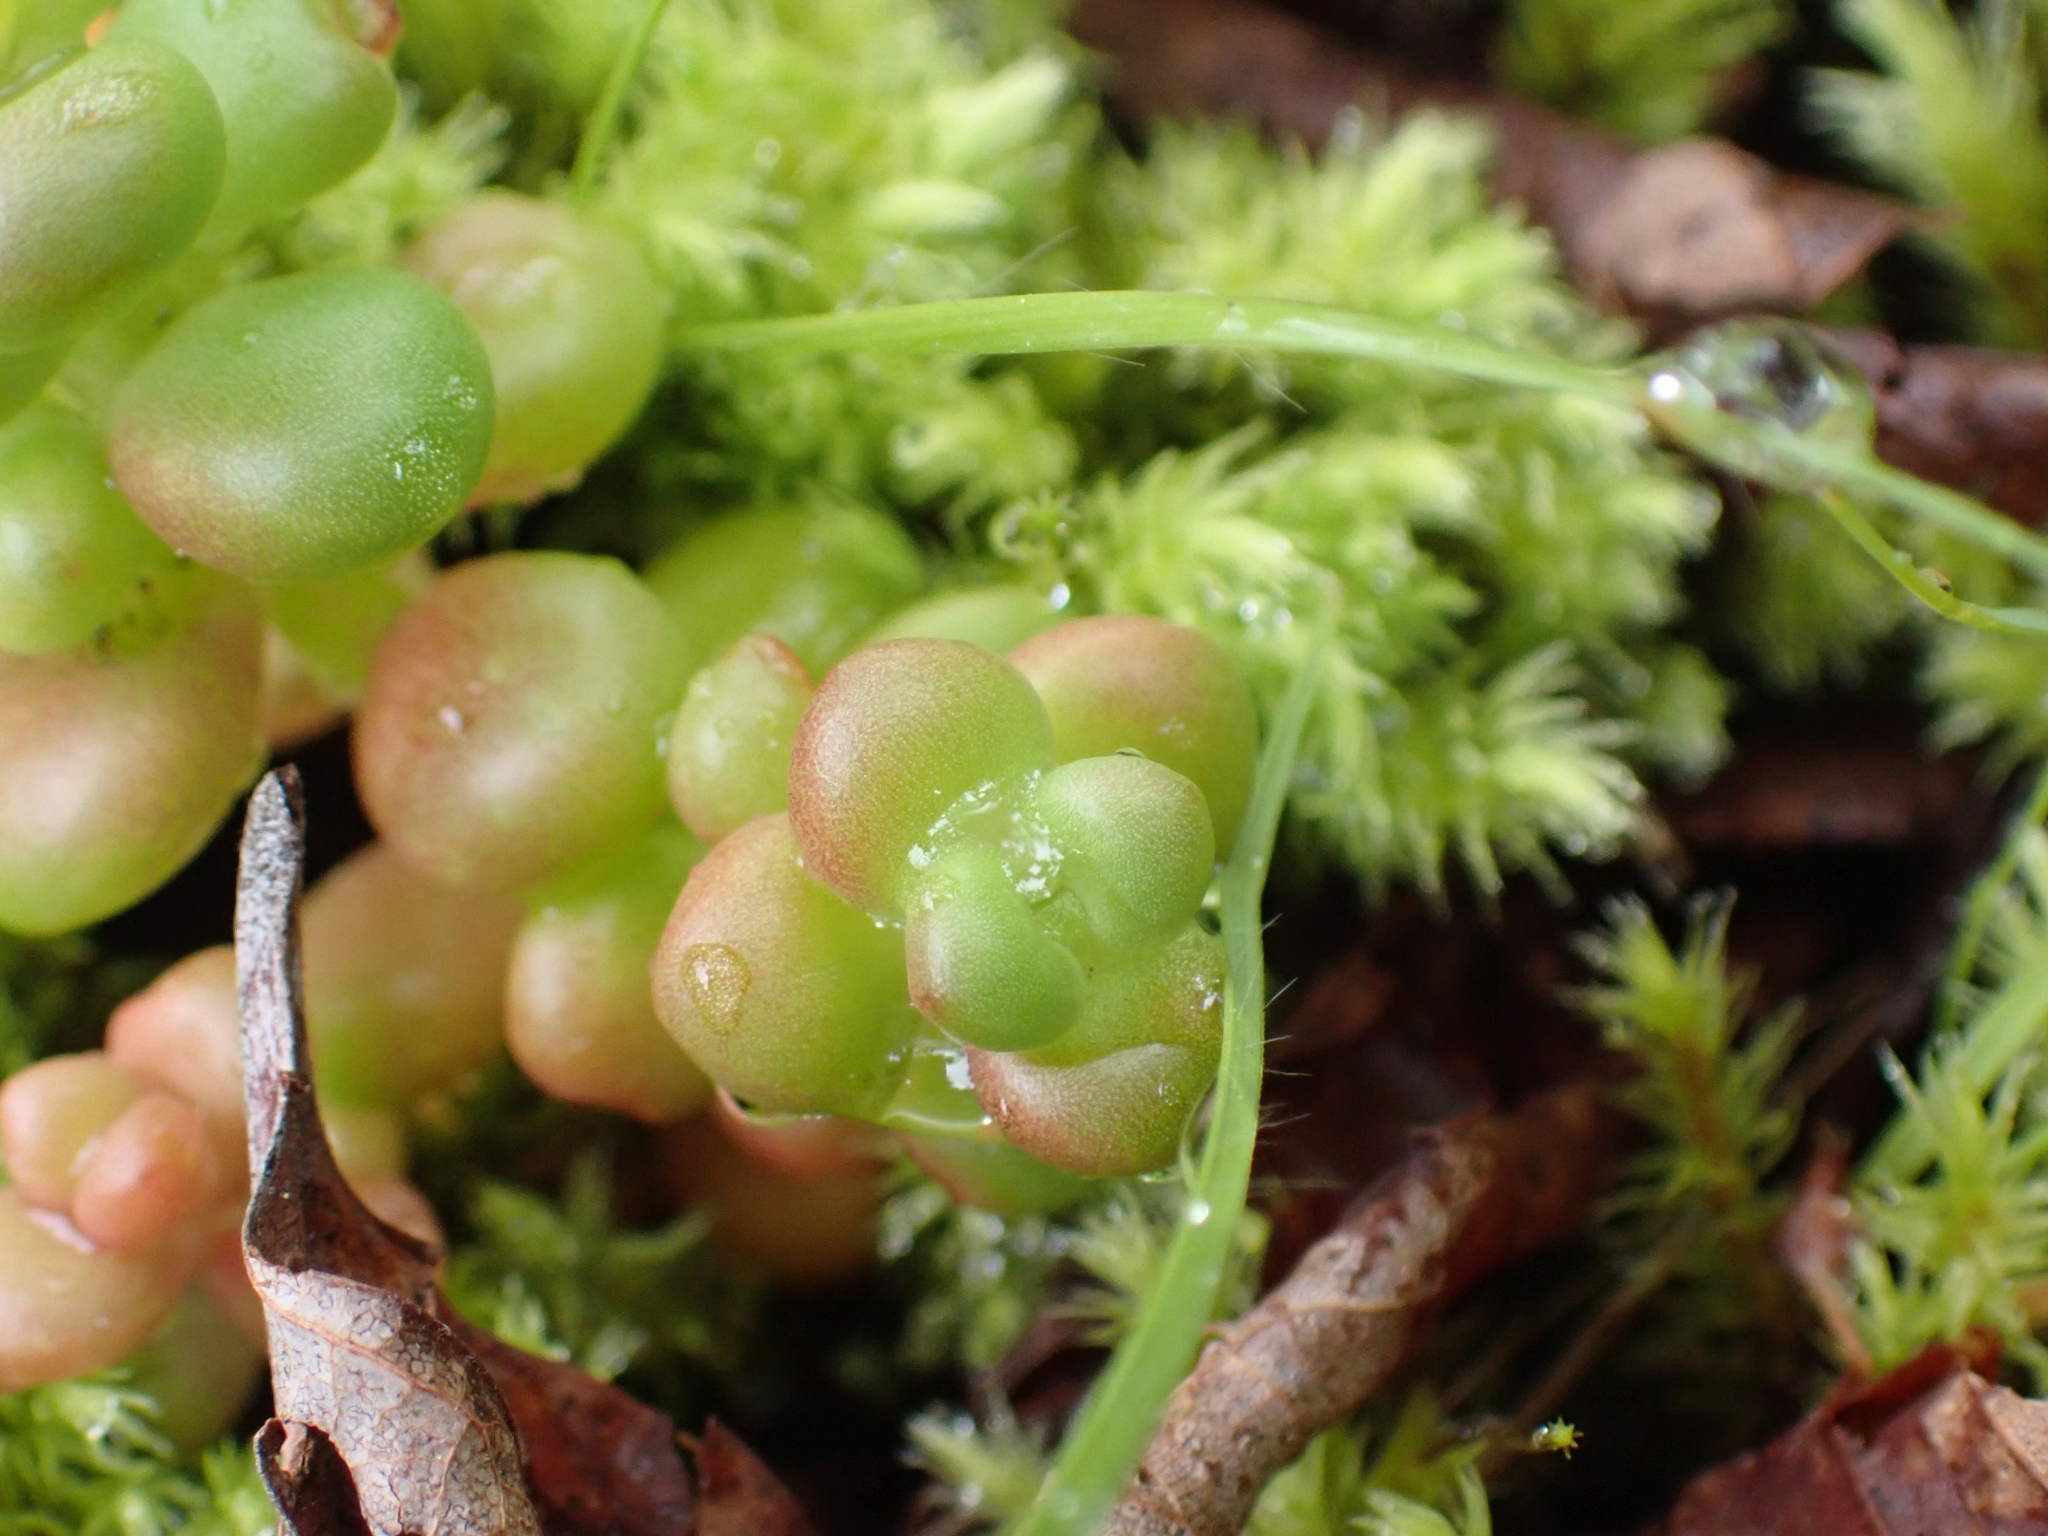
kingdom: Plantae
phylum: Tracheophyta
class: Magnoliopsida
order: Saxifragales
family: Crassulaceae
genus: Sedum
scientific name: Sedum divergens
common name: Cascade stonecrop
